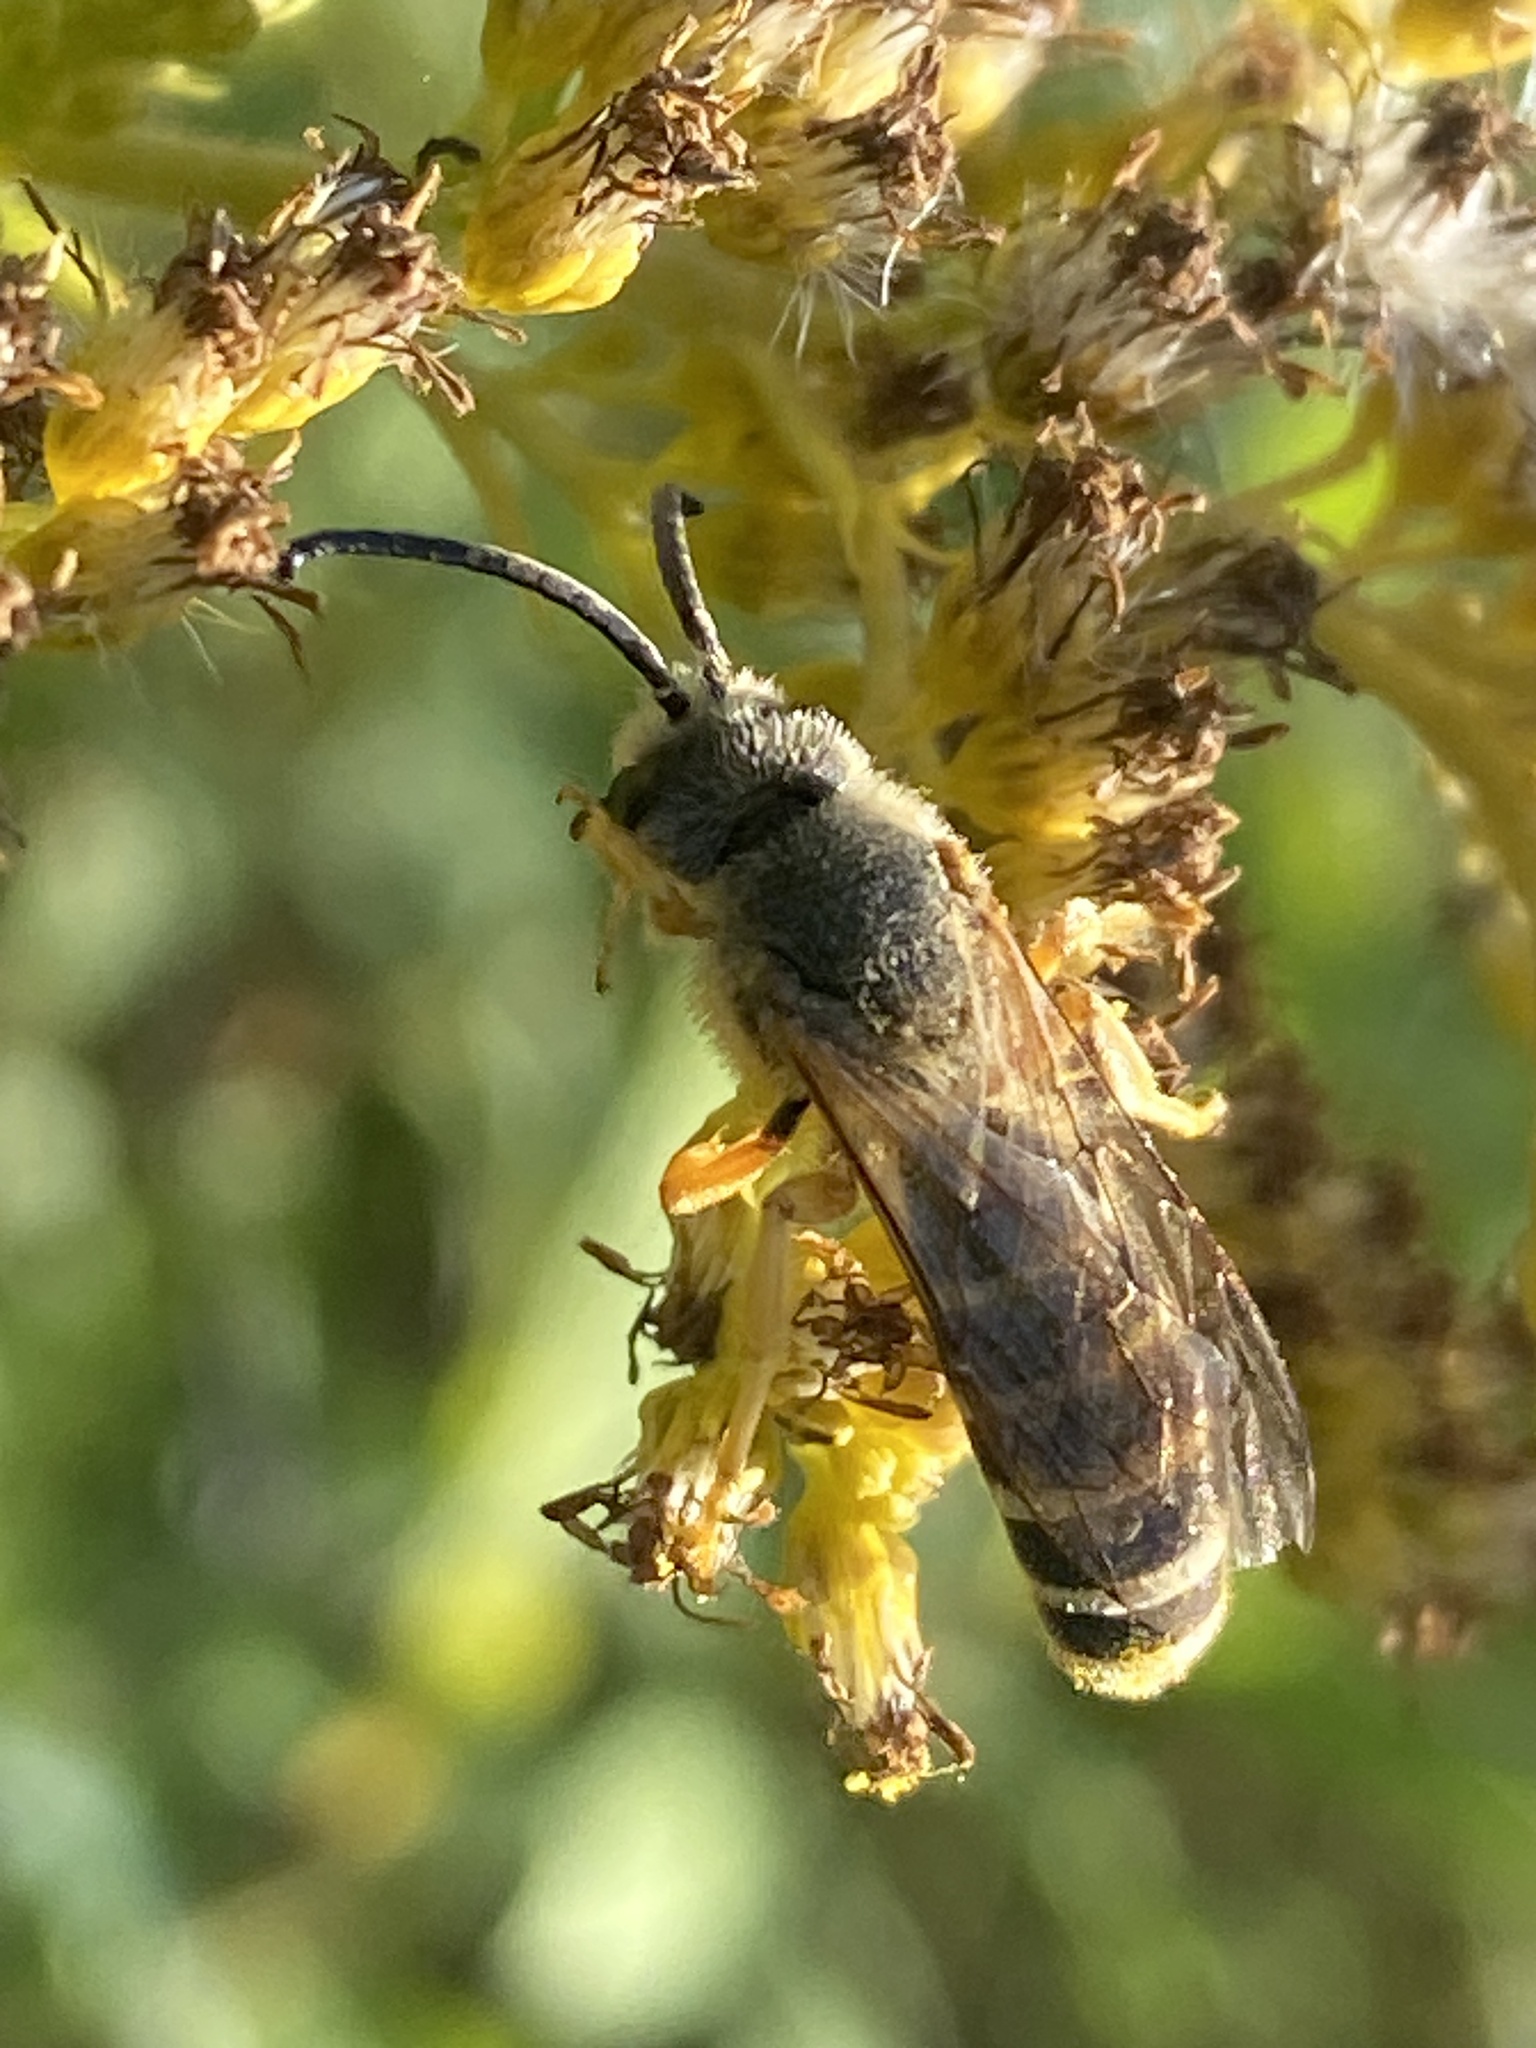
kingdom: Animalia
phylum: Arthropoda
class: Insecta
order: Hymenoptera
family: Halictidae
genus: Halictus
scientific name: Halictus scabiosae
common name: Great banded furrow bee
